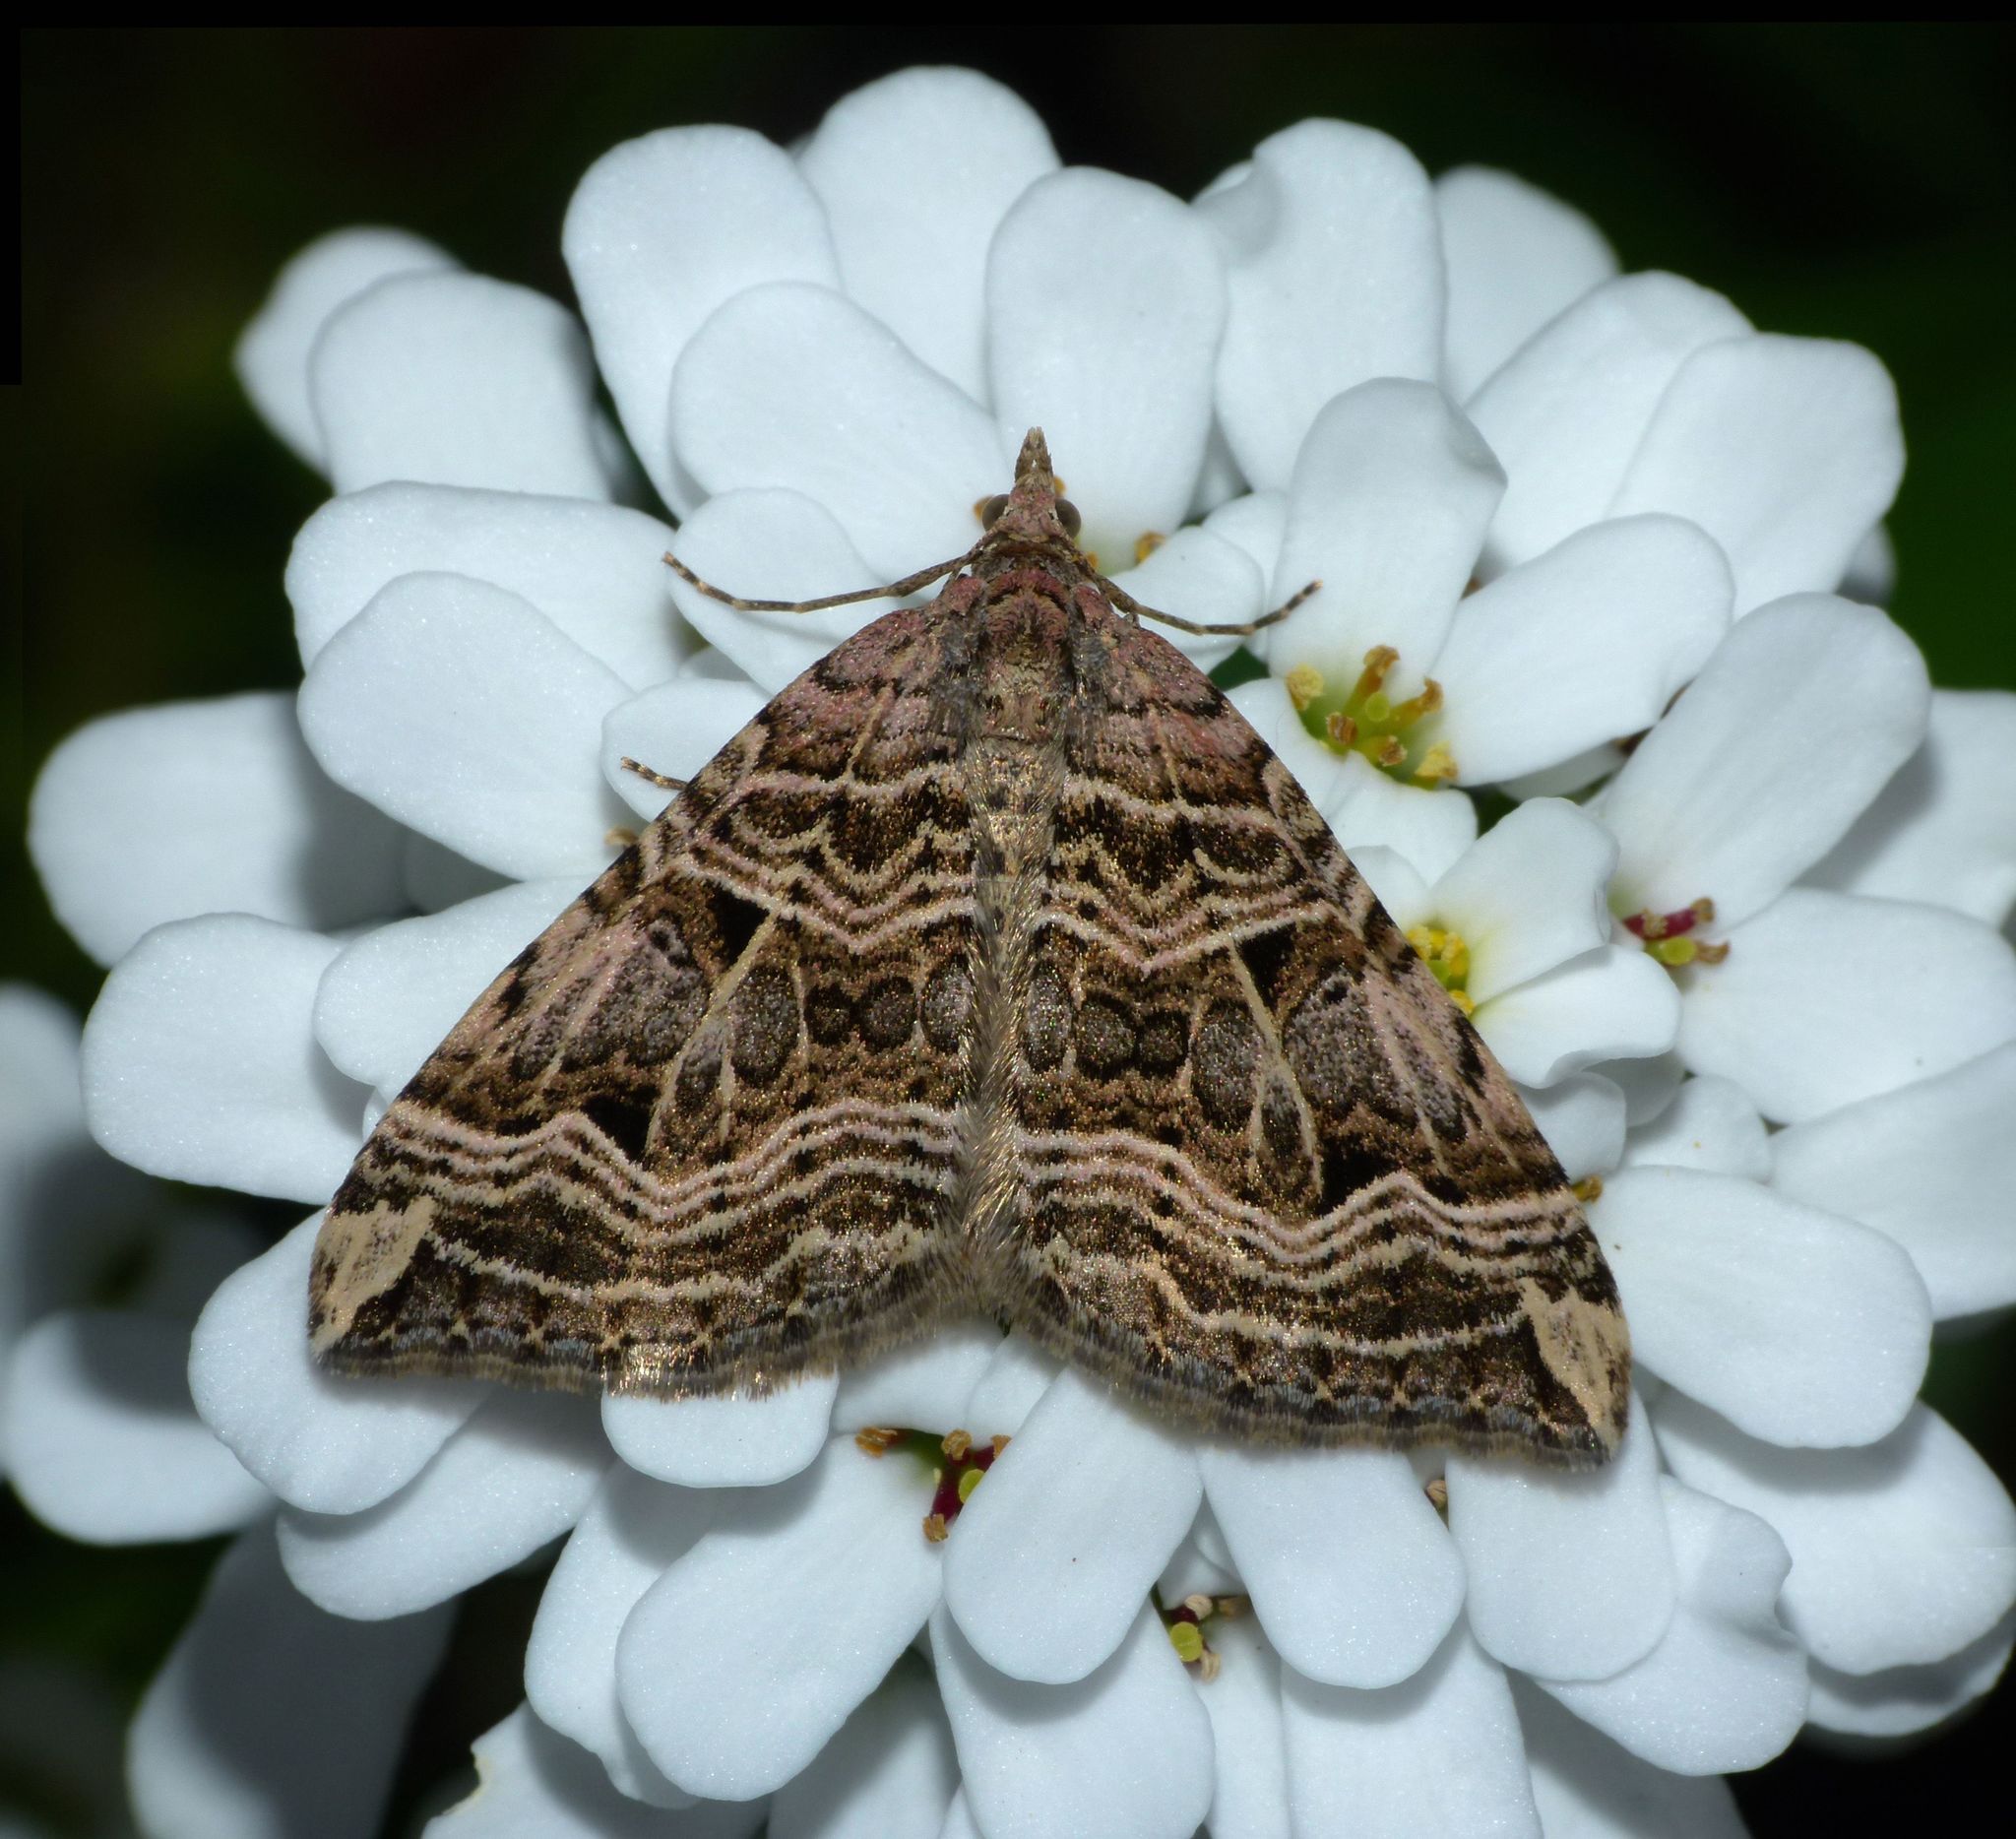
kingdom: Animalia
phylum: Arthropoda
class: Insecta
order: Lepidoptera
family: Geometridae
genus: Xanthorhoe
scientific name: Xanthorhoe semifissata
